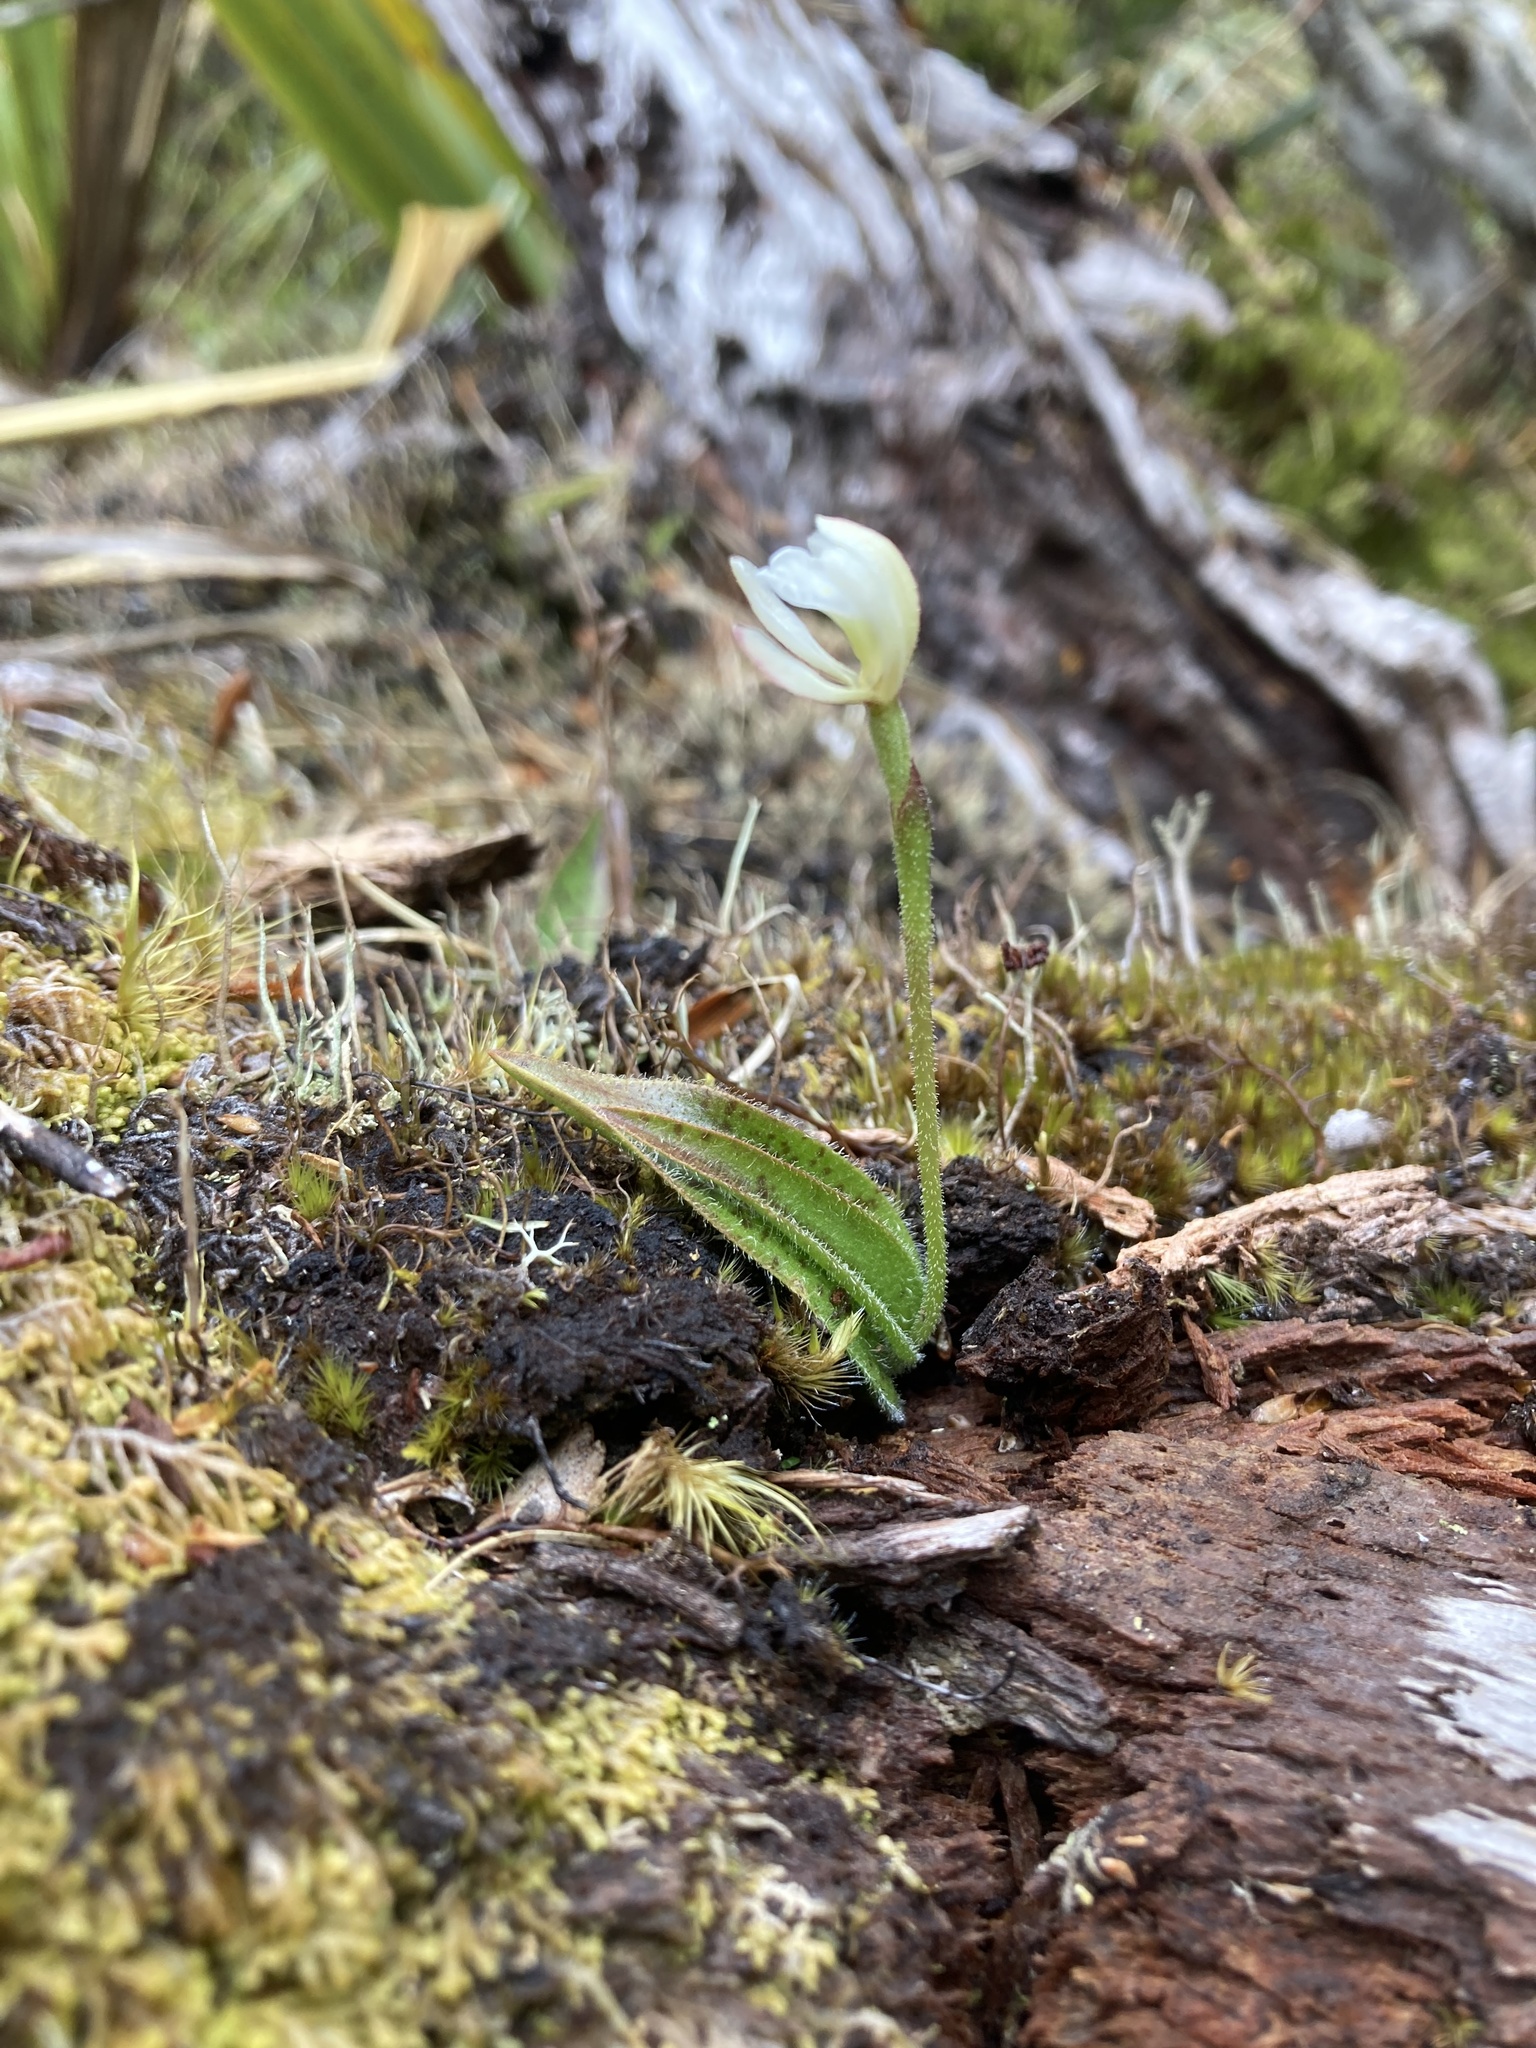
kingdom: Plantae
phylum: Tracheophyta
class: Liliopsida
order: Asparagales
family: Orchidaceae
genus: Aporostylis
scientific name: Aporostylis bifolia
